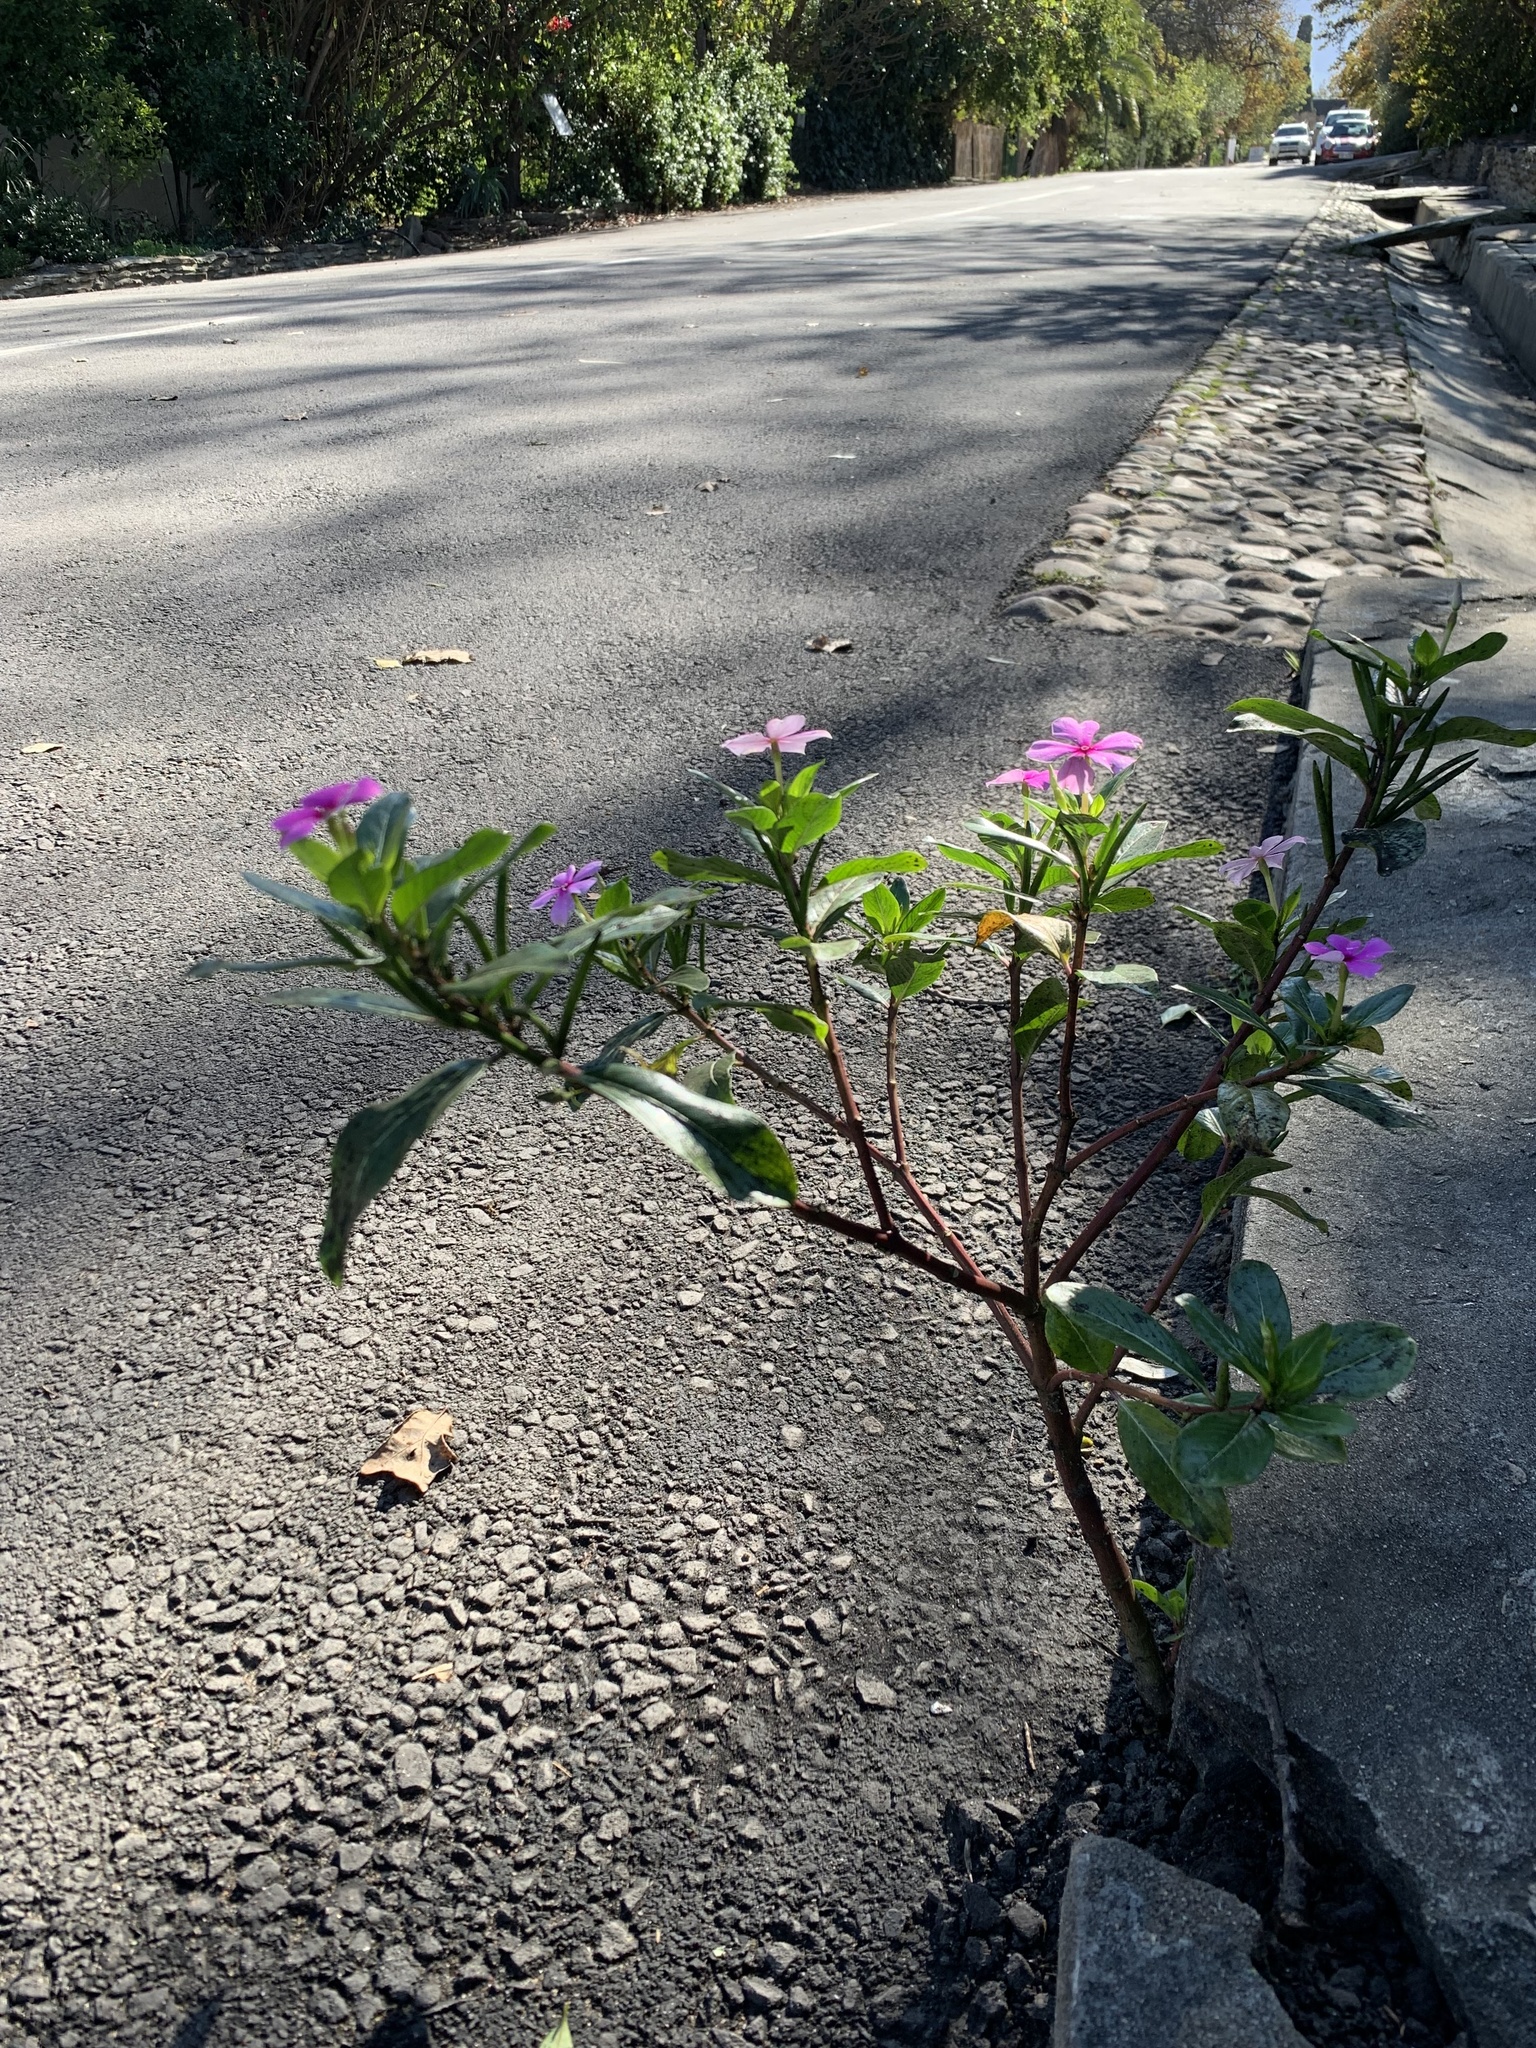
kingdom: Plantae
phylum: Tracheophyta
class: Magnoliopsida
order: Gentianales
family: Apocynaceae
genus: Catharanthus
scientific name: Catharanthus roseus
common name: Madagascar periwinkle
